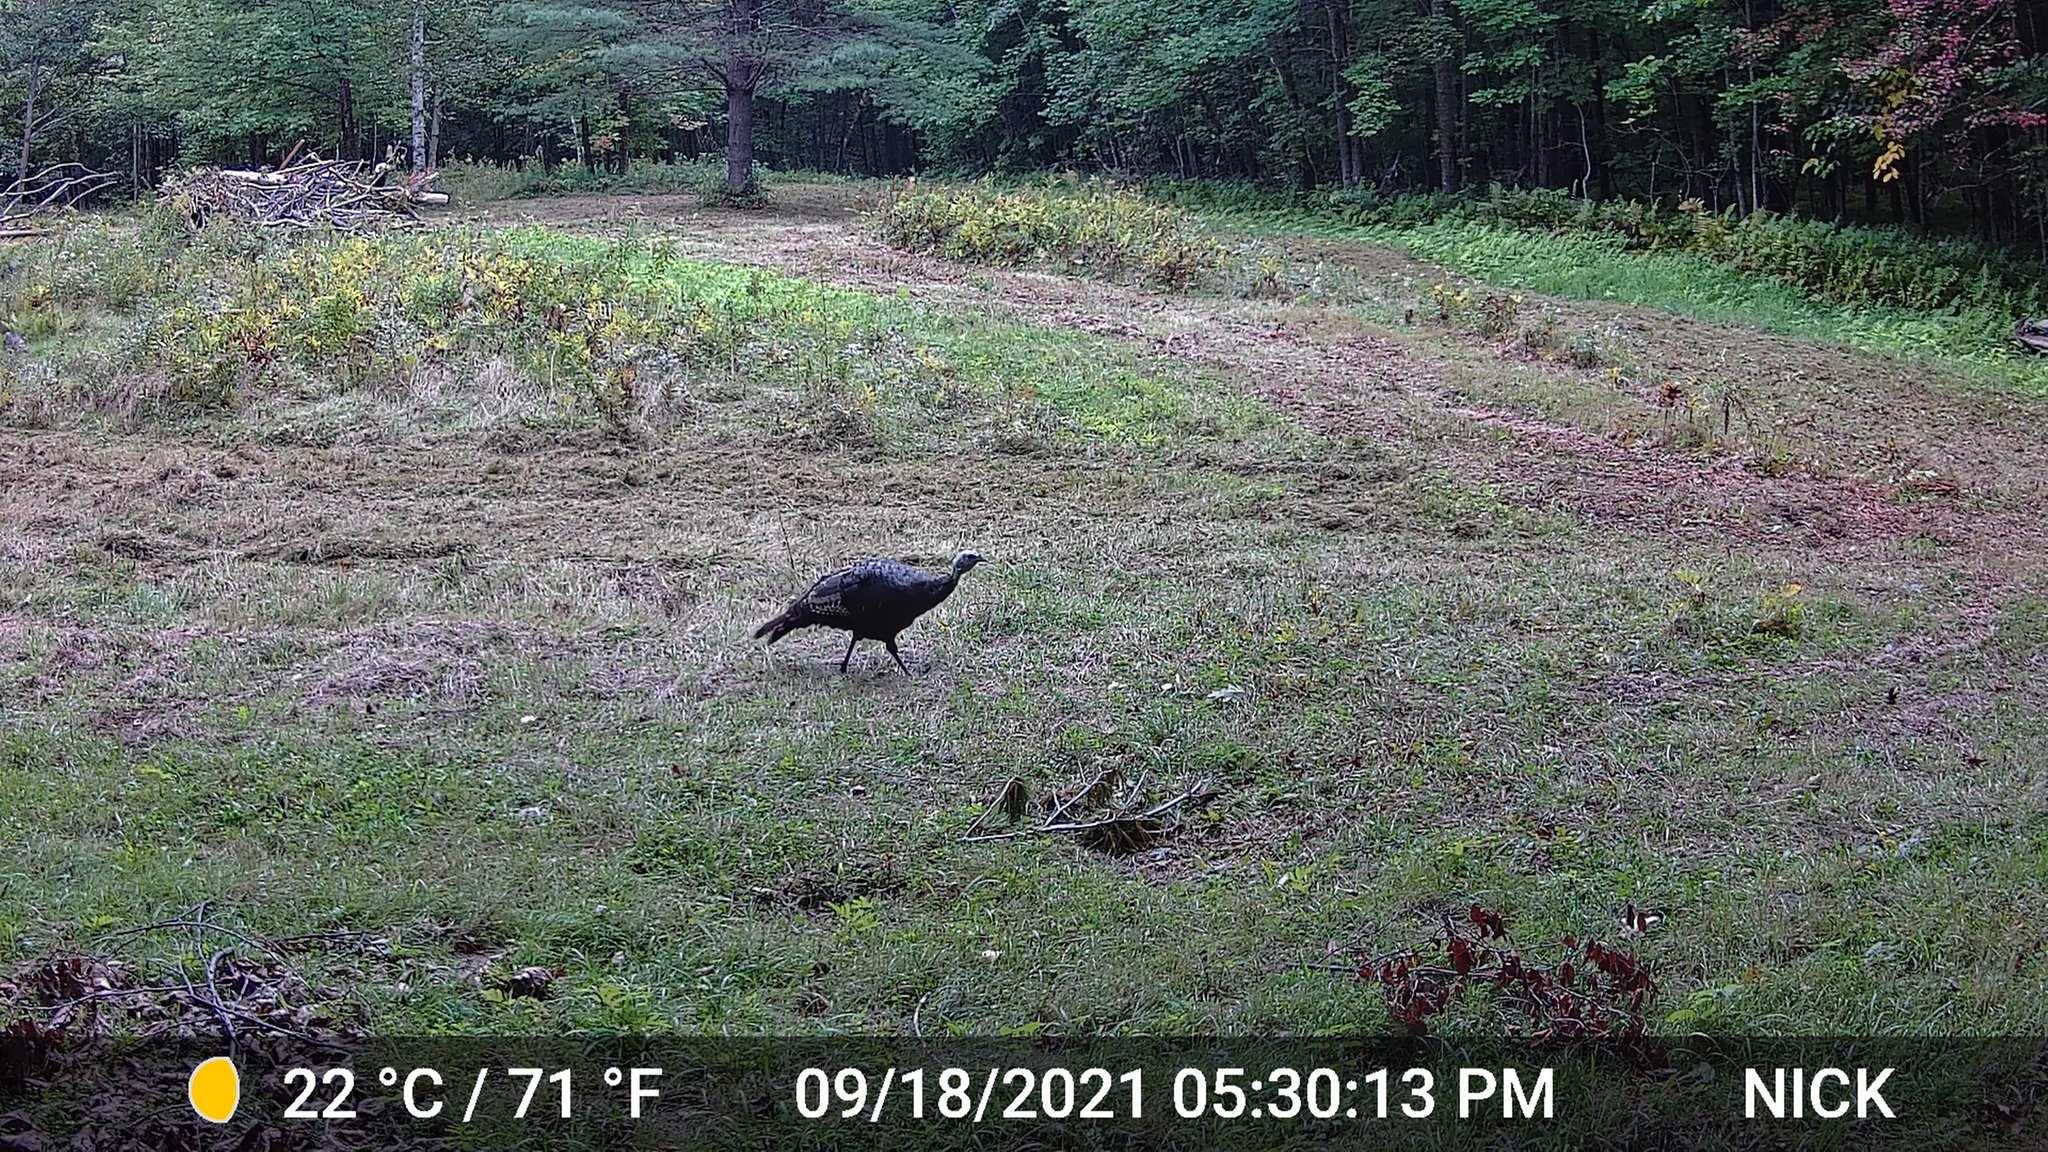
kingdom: Animalia
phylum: Chordata
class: Aves
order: Galliformes
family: Phasianidae
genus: Meleagris
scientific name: Meleagris gallopavo
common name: Wild turkey
